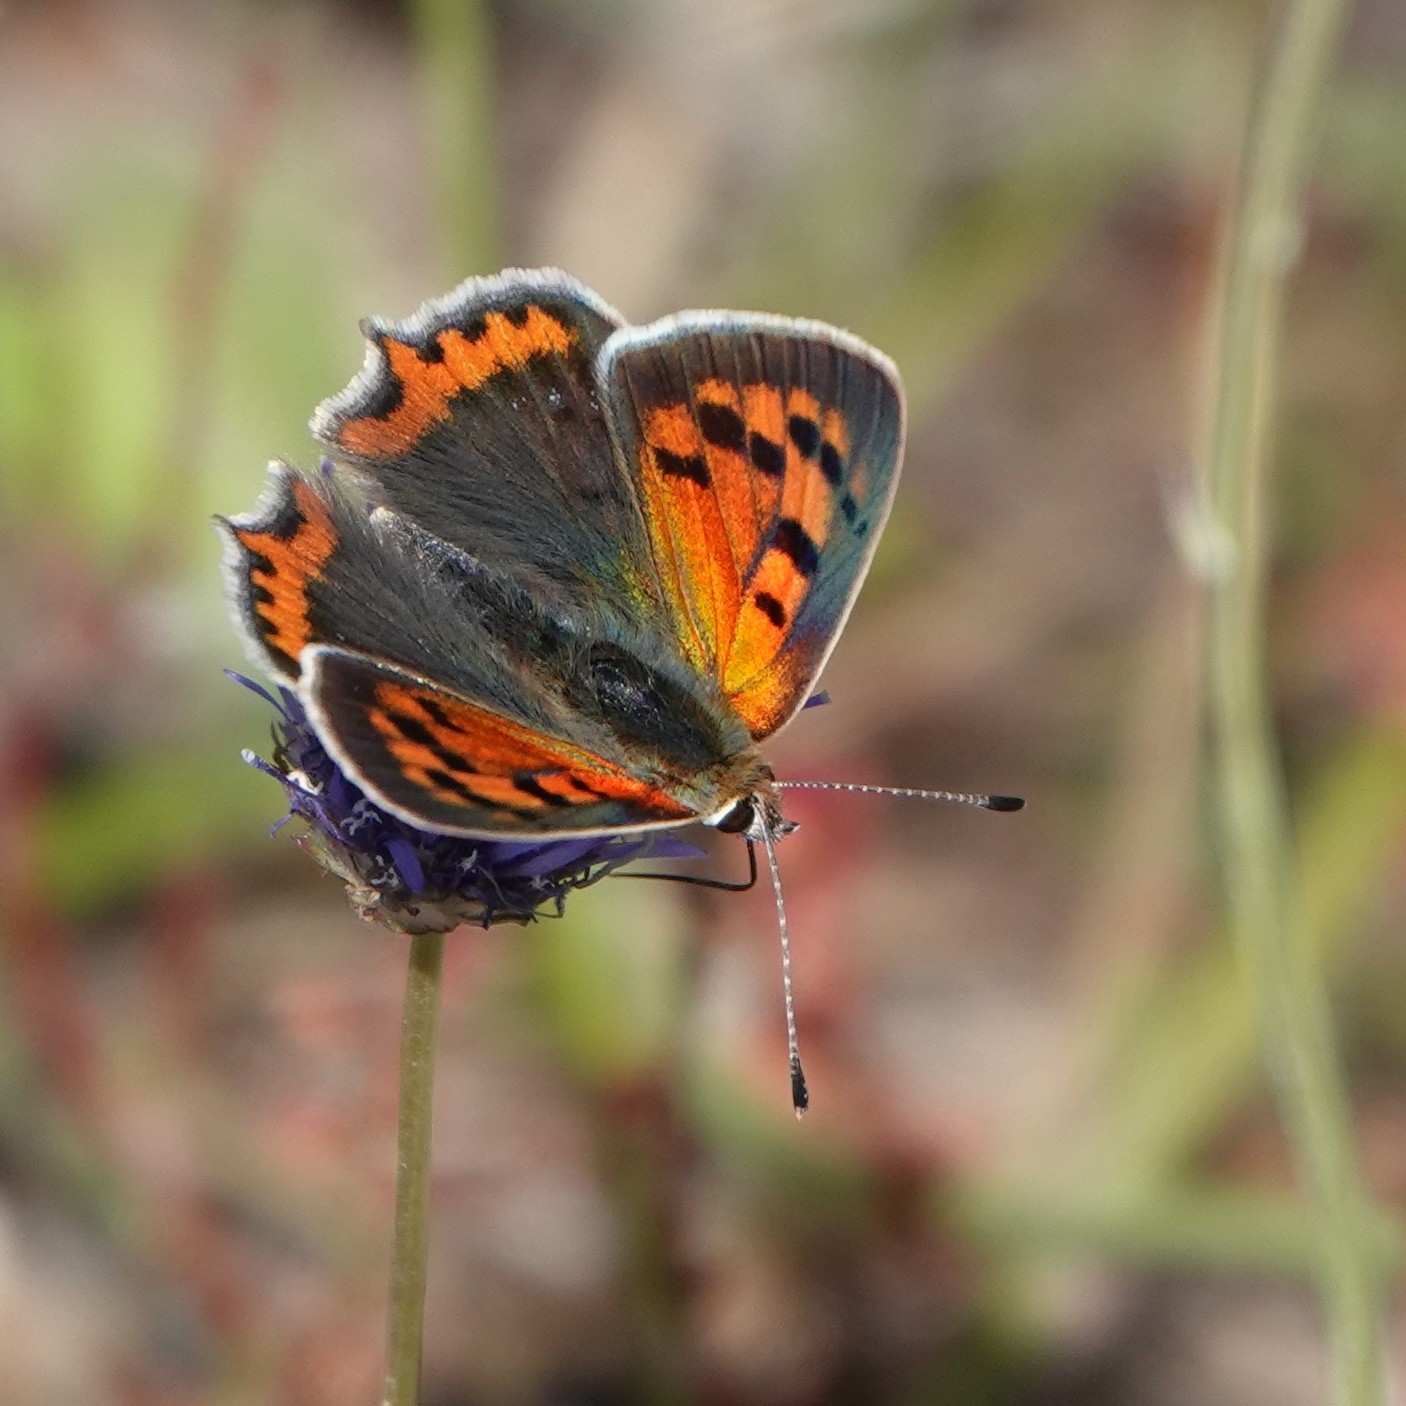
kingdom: Animalia
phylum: Arthropoda
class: Insecta
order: Lepidoptera
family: Lycaenidae
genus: Lycaena
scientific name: Lycaena phlaeas
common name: Small copper
